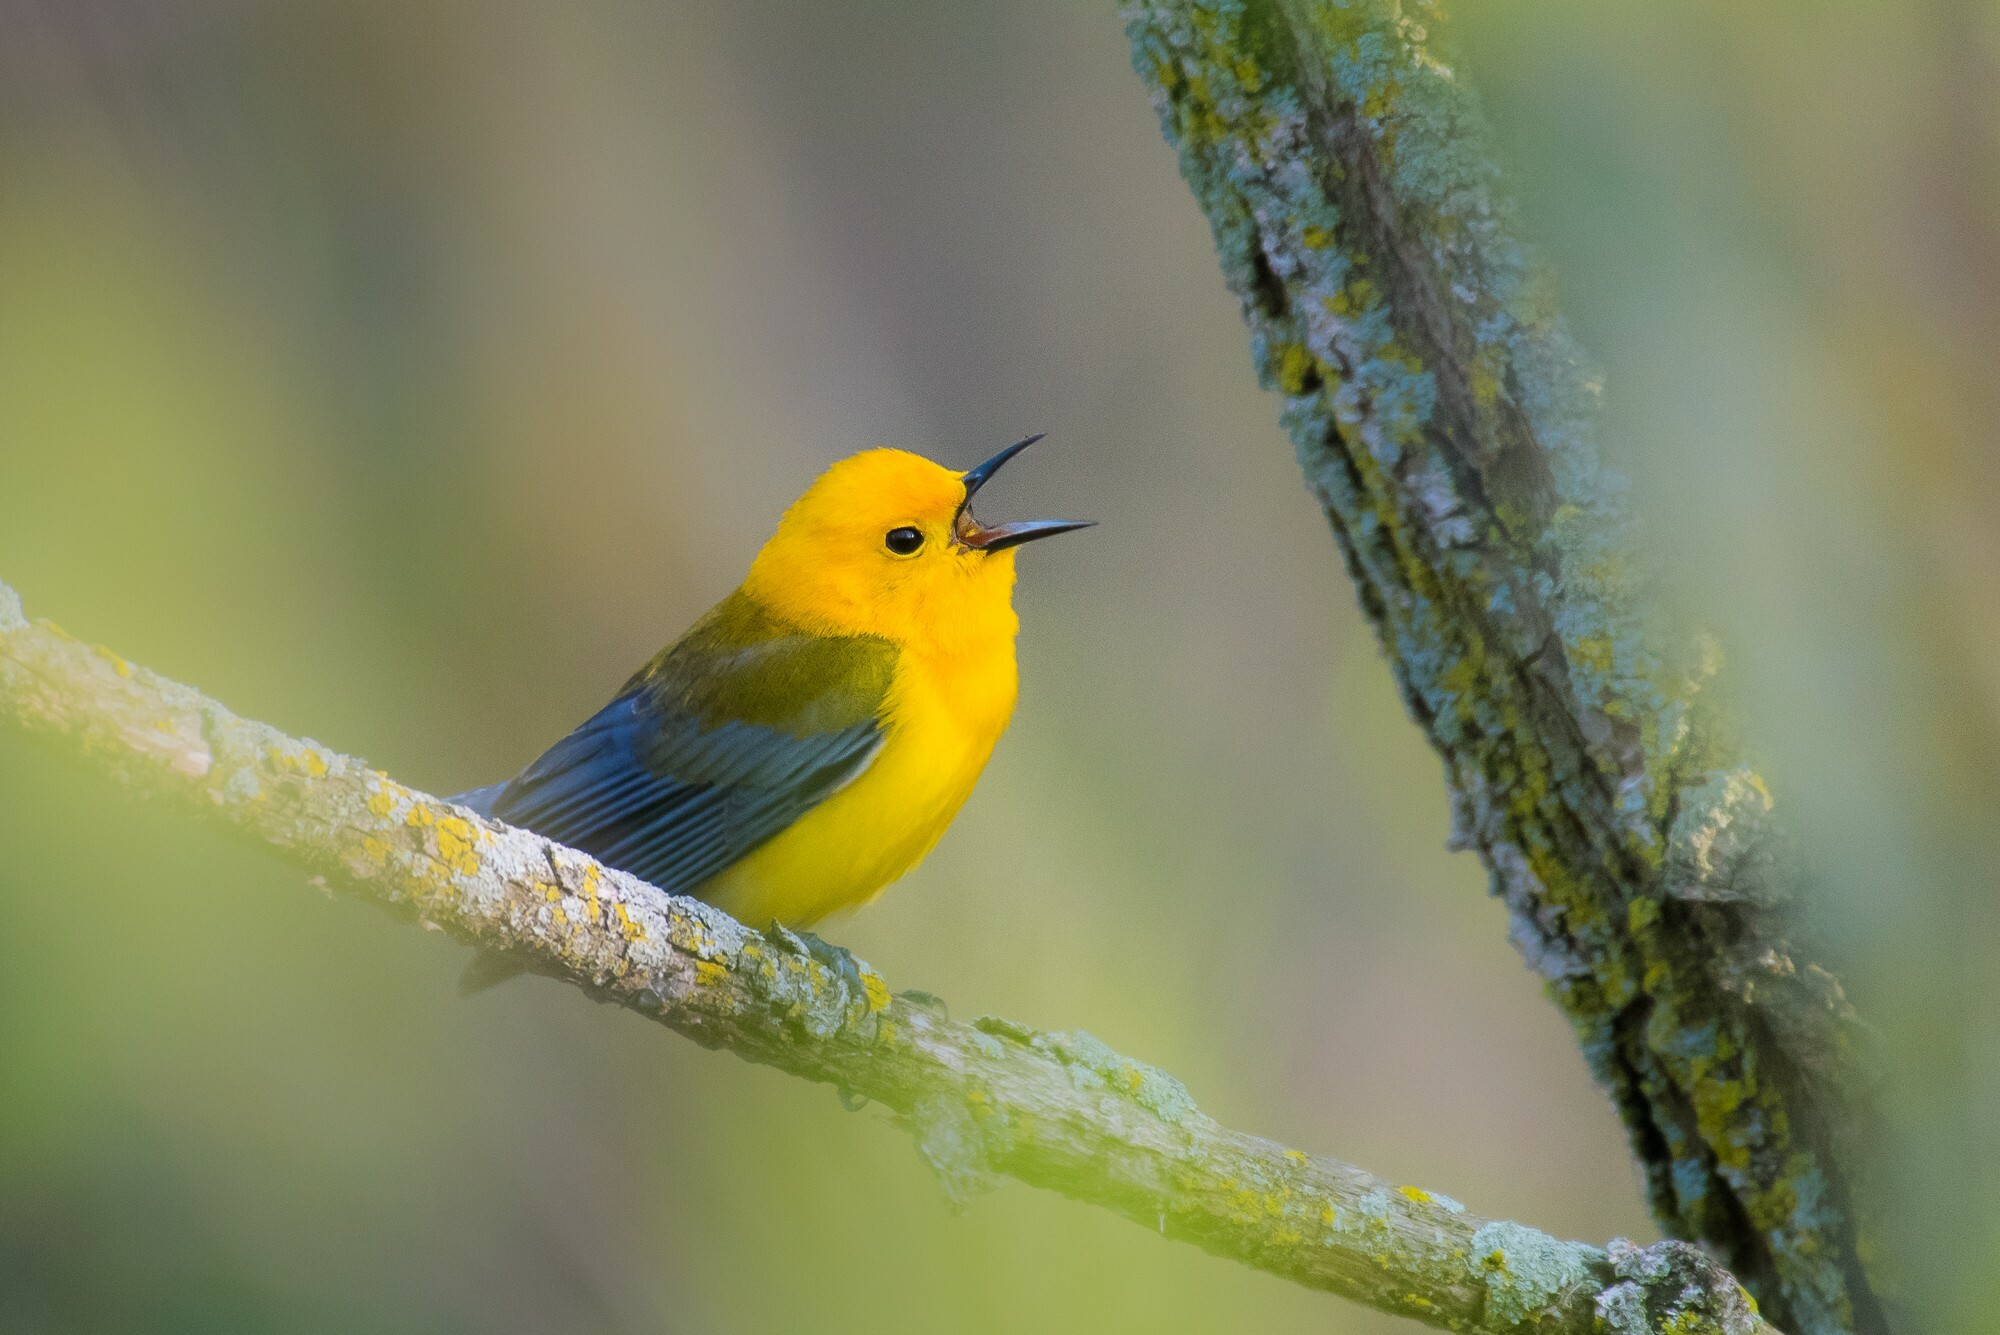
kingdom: Animalia
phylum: Chordata
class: Aves
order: Passeriformes
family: Parulidae
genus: Protonotaria
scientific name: Protonotaria citrea
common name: Prothonotary warbler
